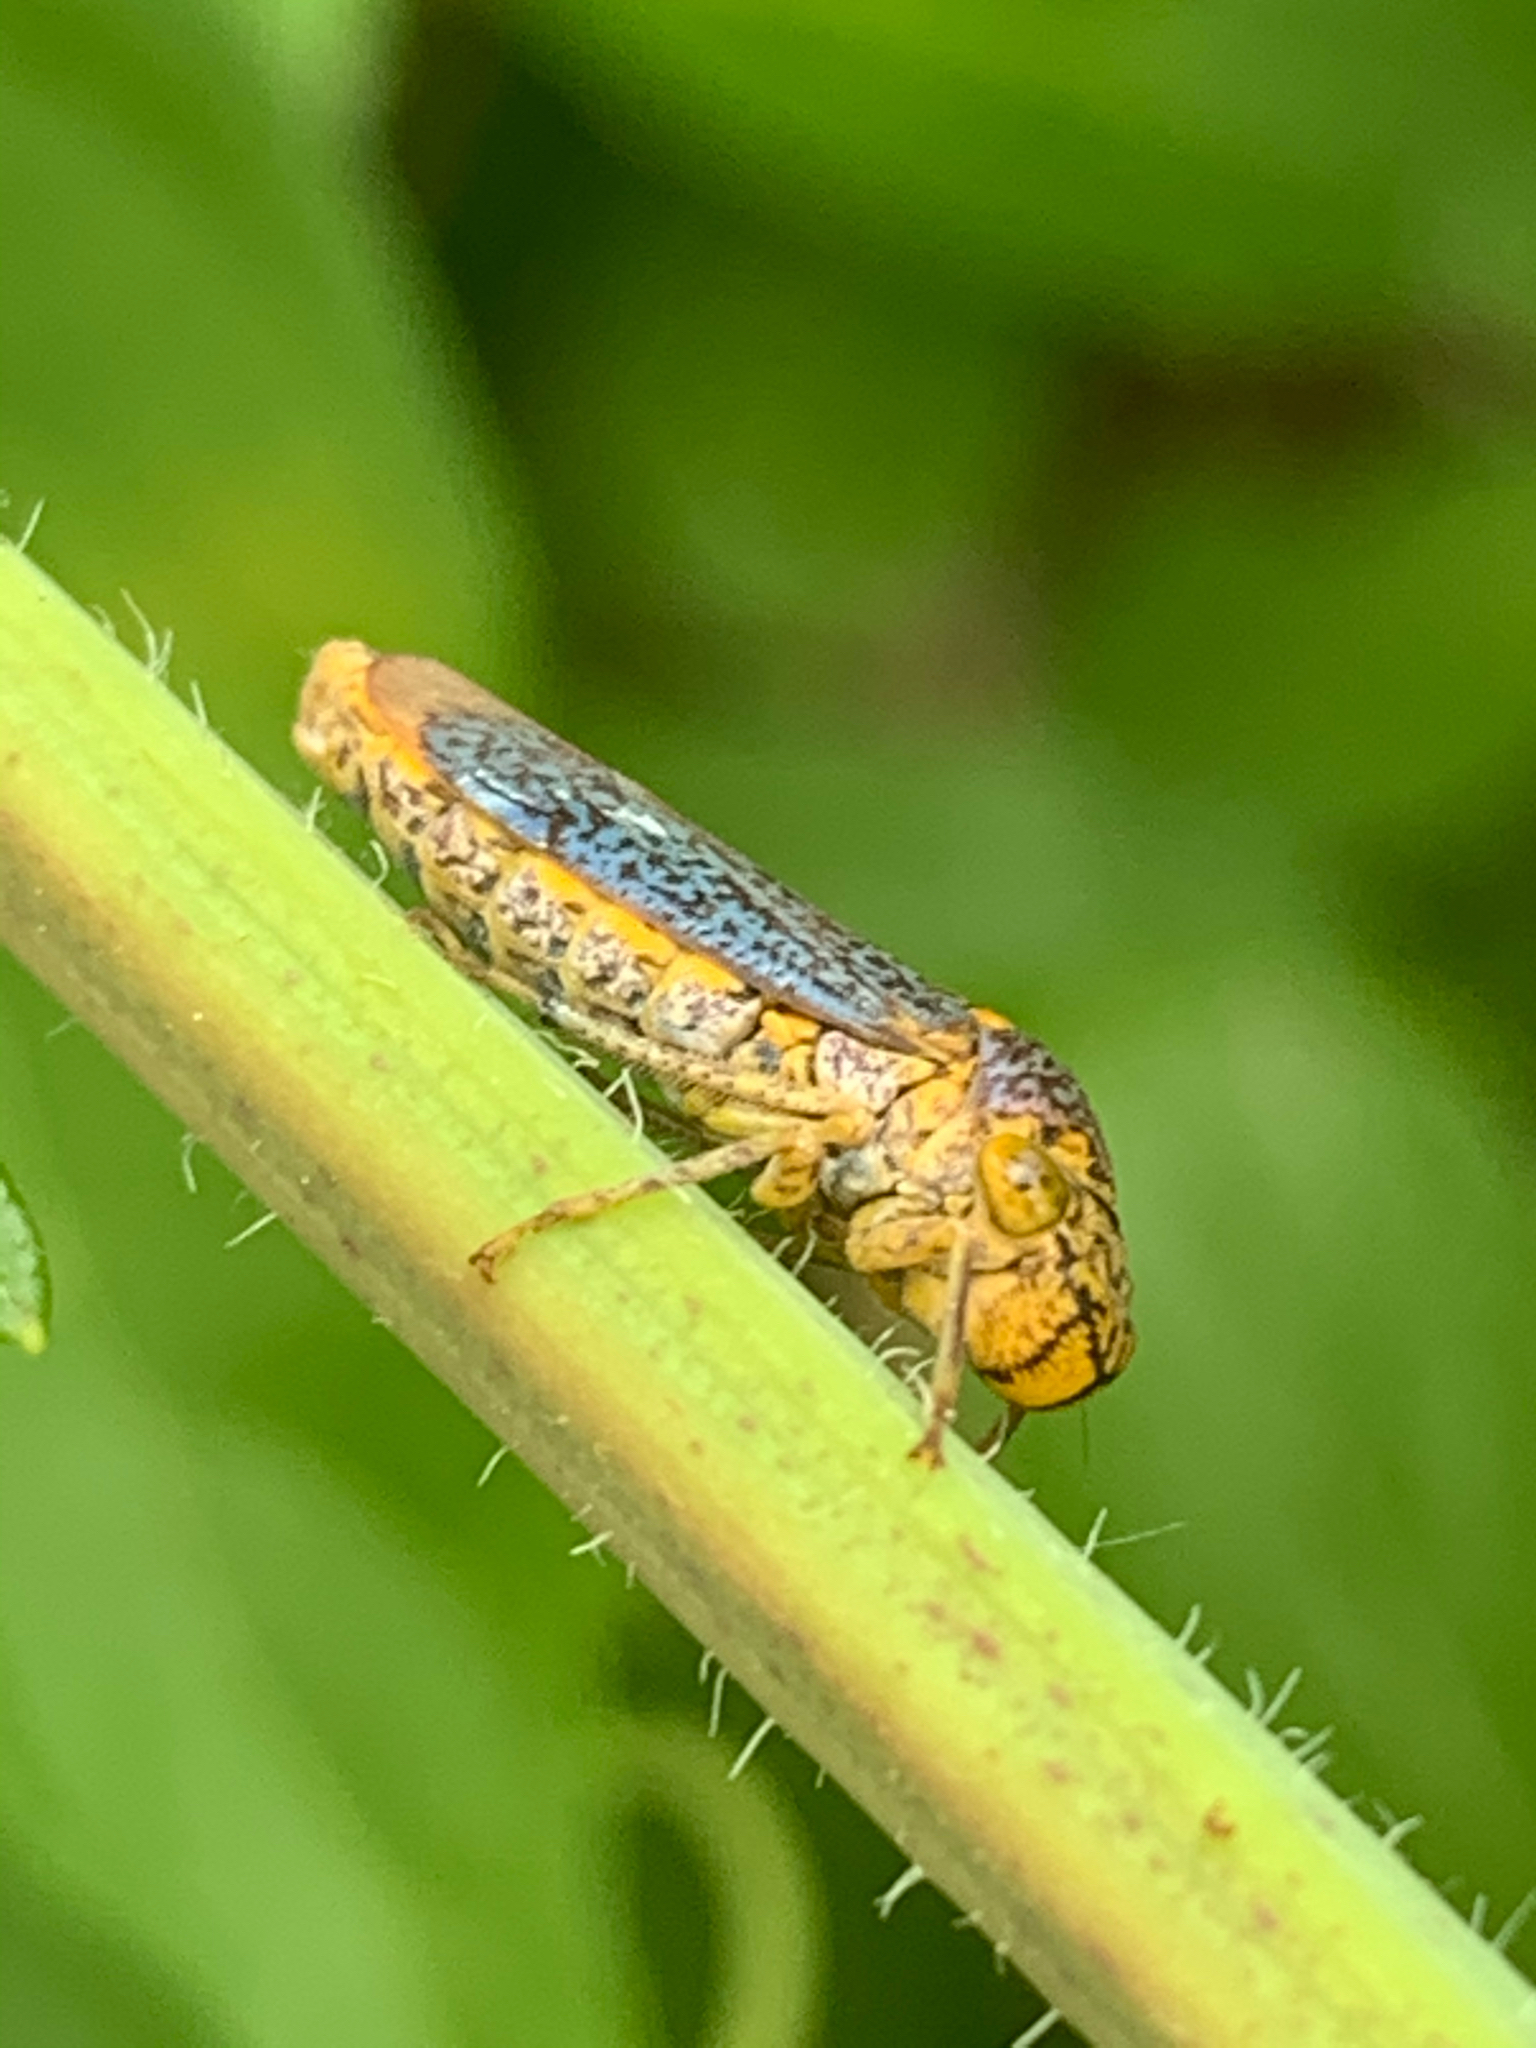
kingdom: Animalia
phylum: Arthropoda
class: Insecta
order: Hemiptera
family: Cicadellidae
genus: Oncometopia
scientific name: Oncometopia orbona
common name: Broad-headed sharpshooter
